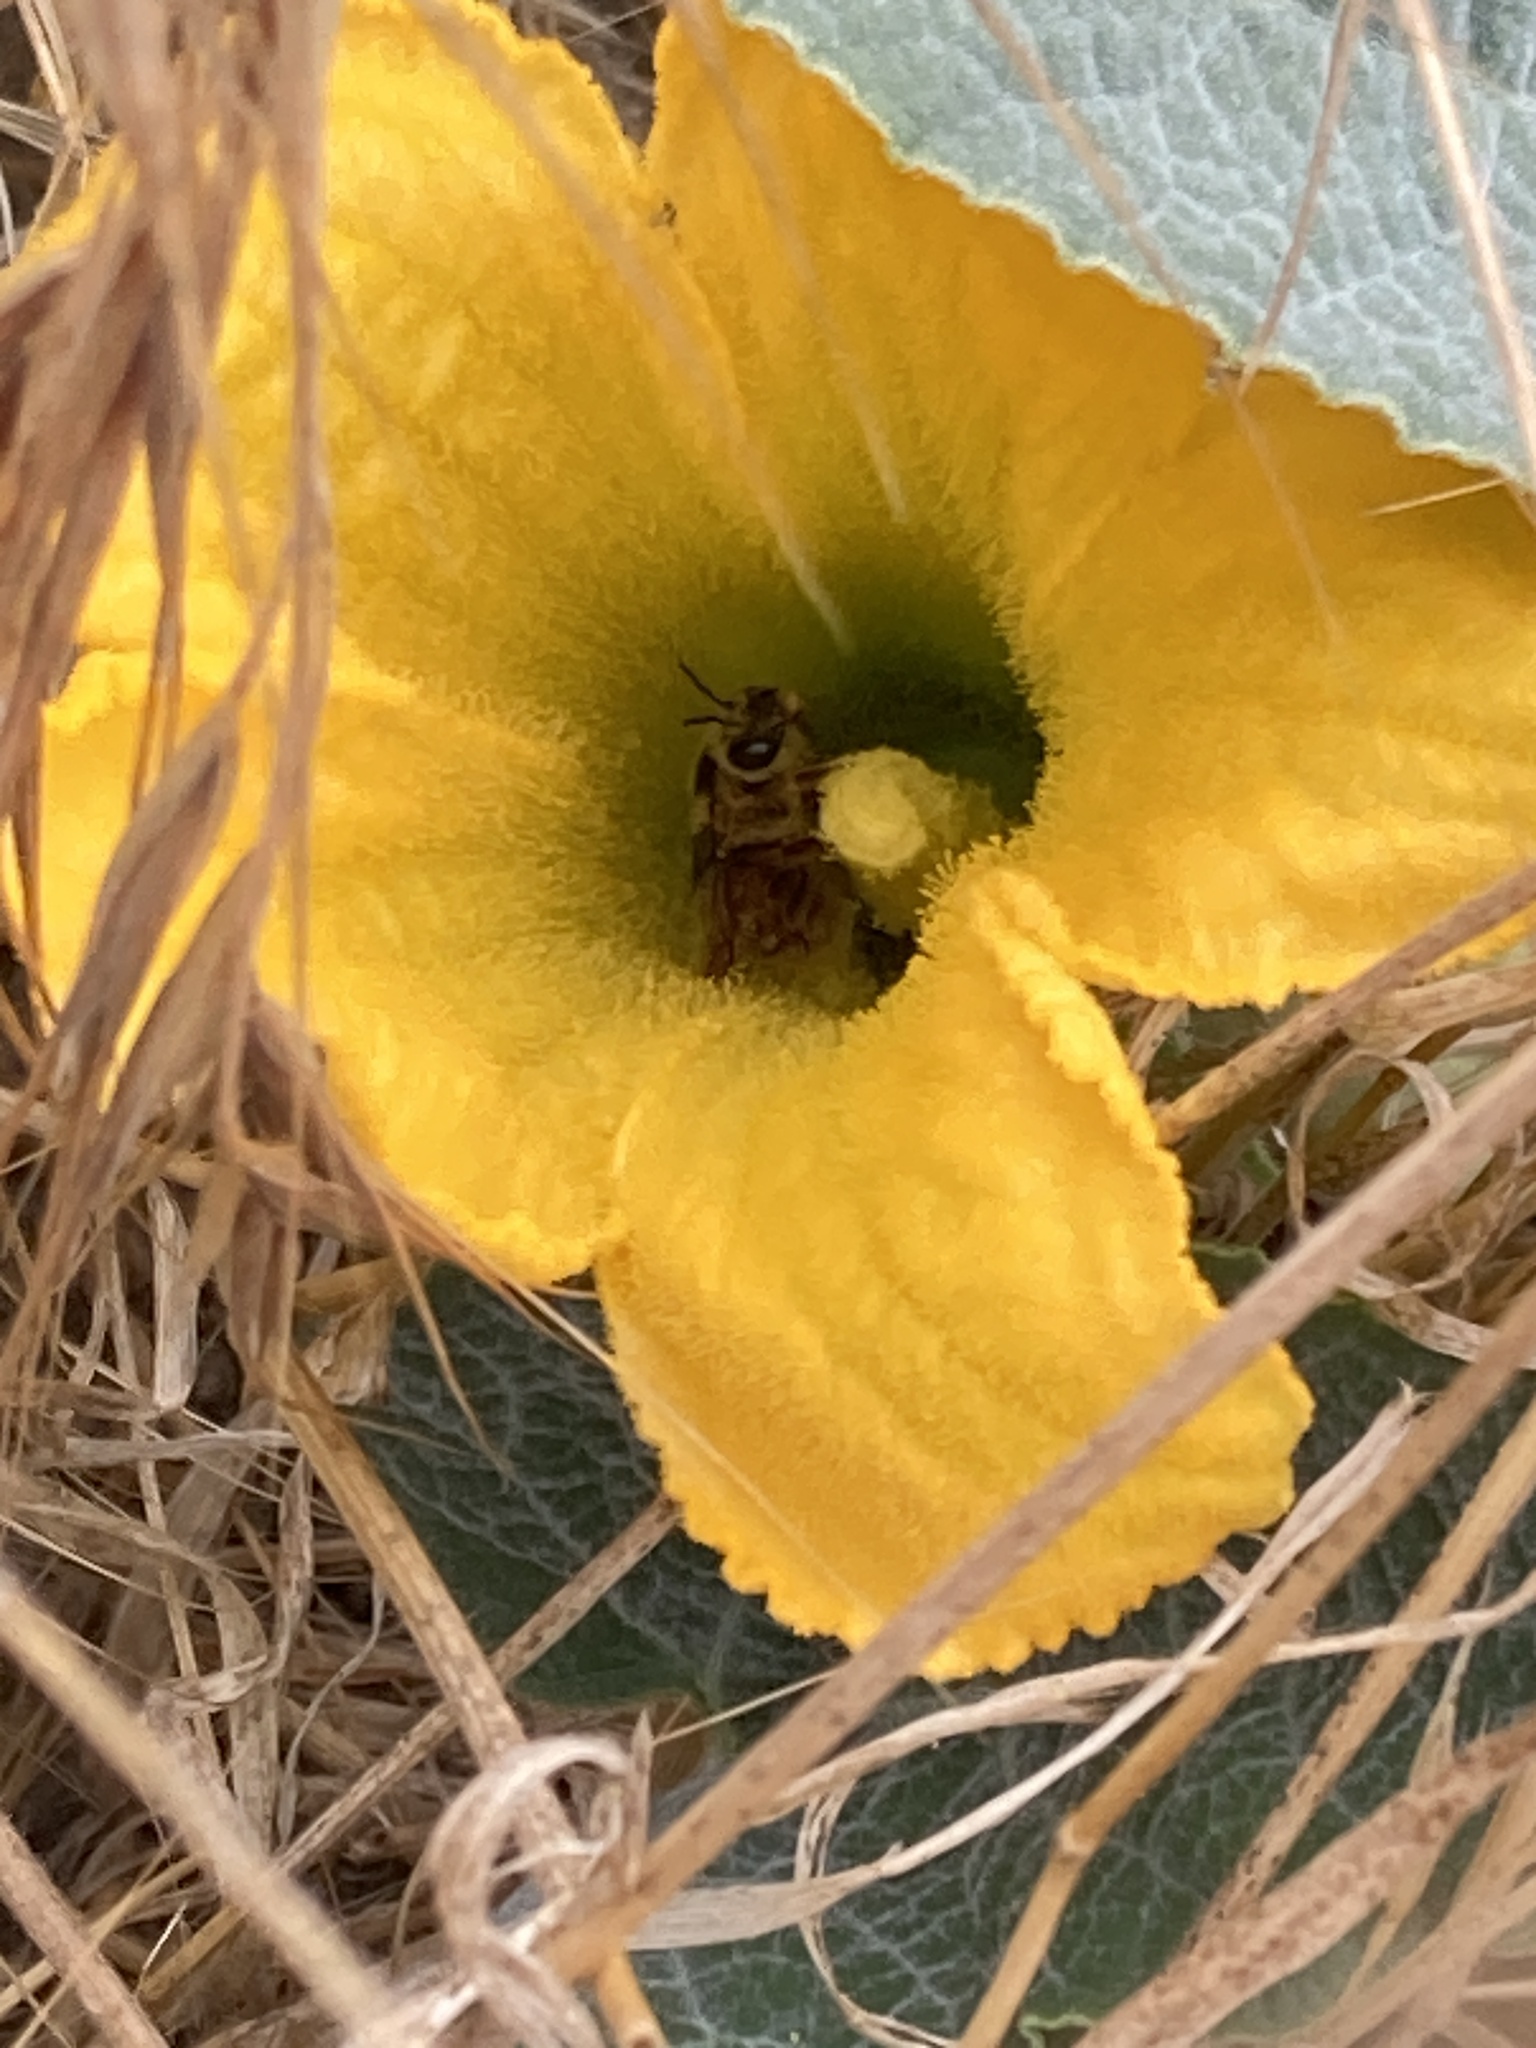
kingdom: Animalia
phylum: Arthropoda
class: Insecta
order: Hymenoptera
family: Apidae
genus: Peponapis
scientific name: Peponapis pruinosa
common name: Pruinose squash bee
